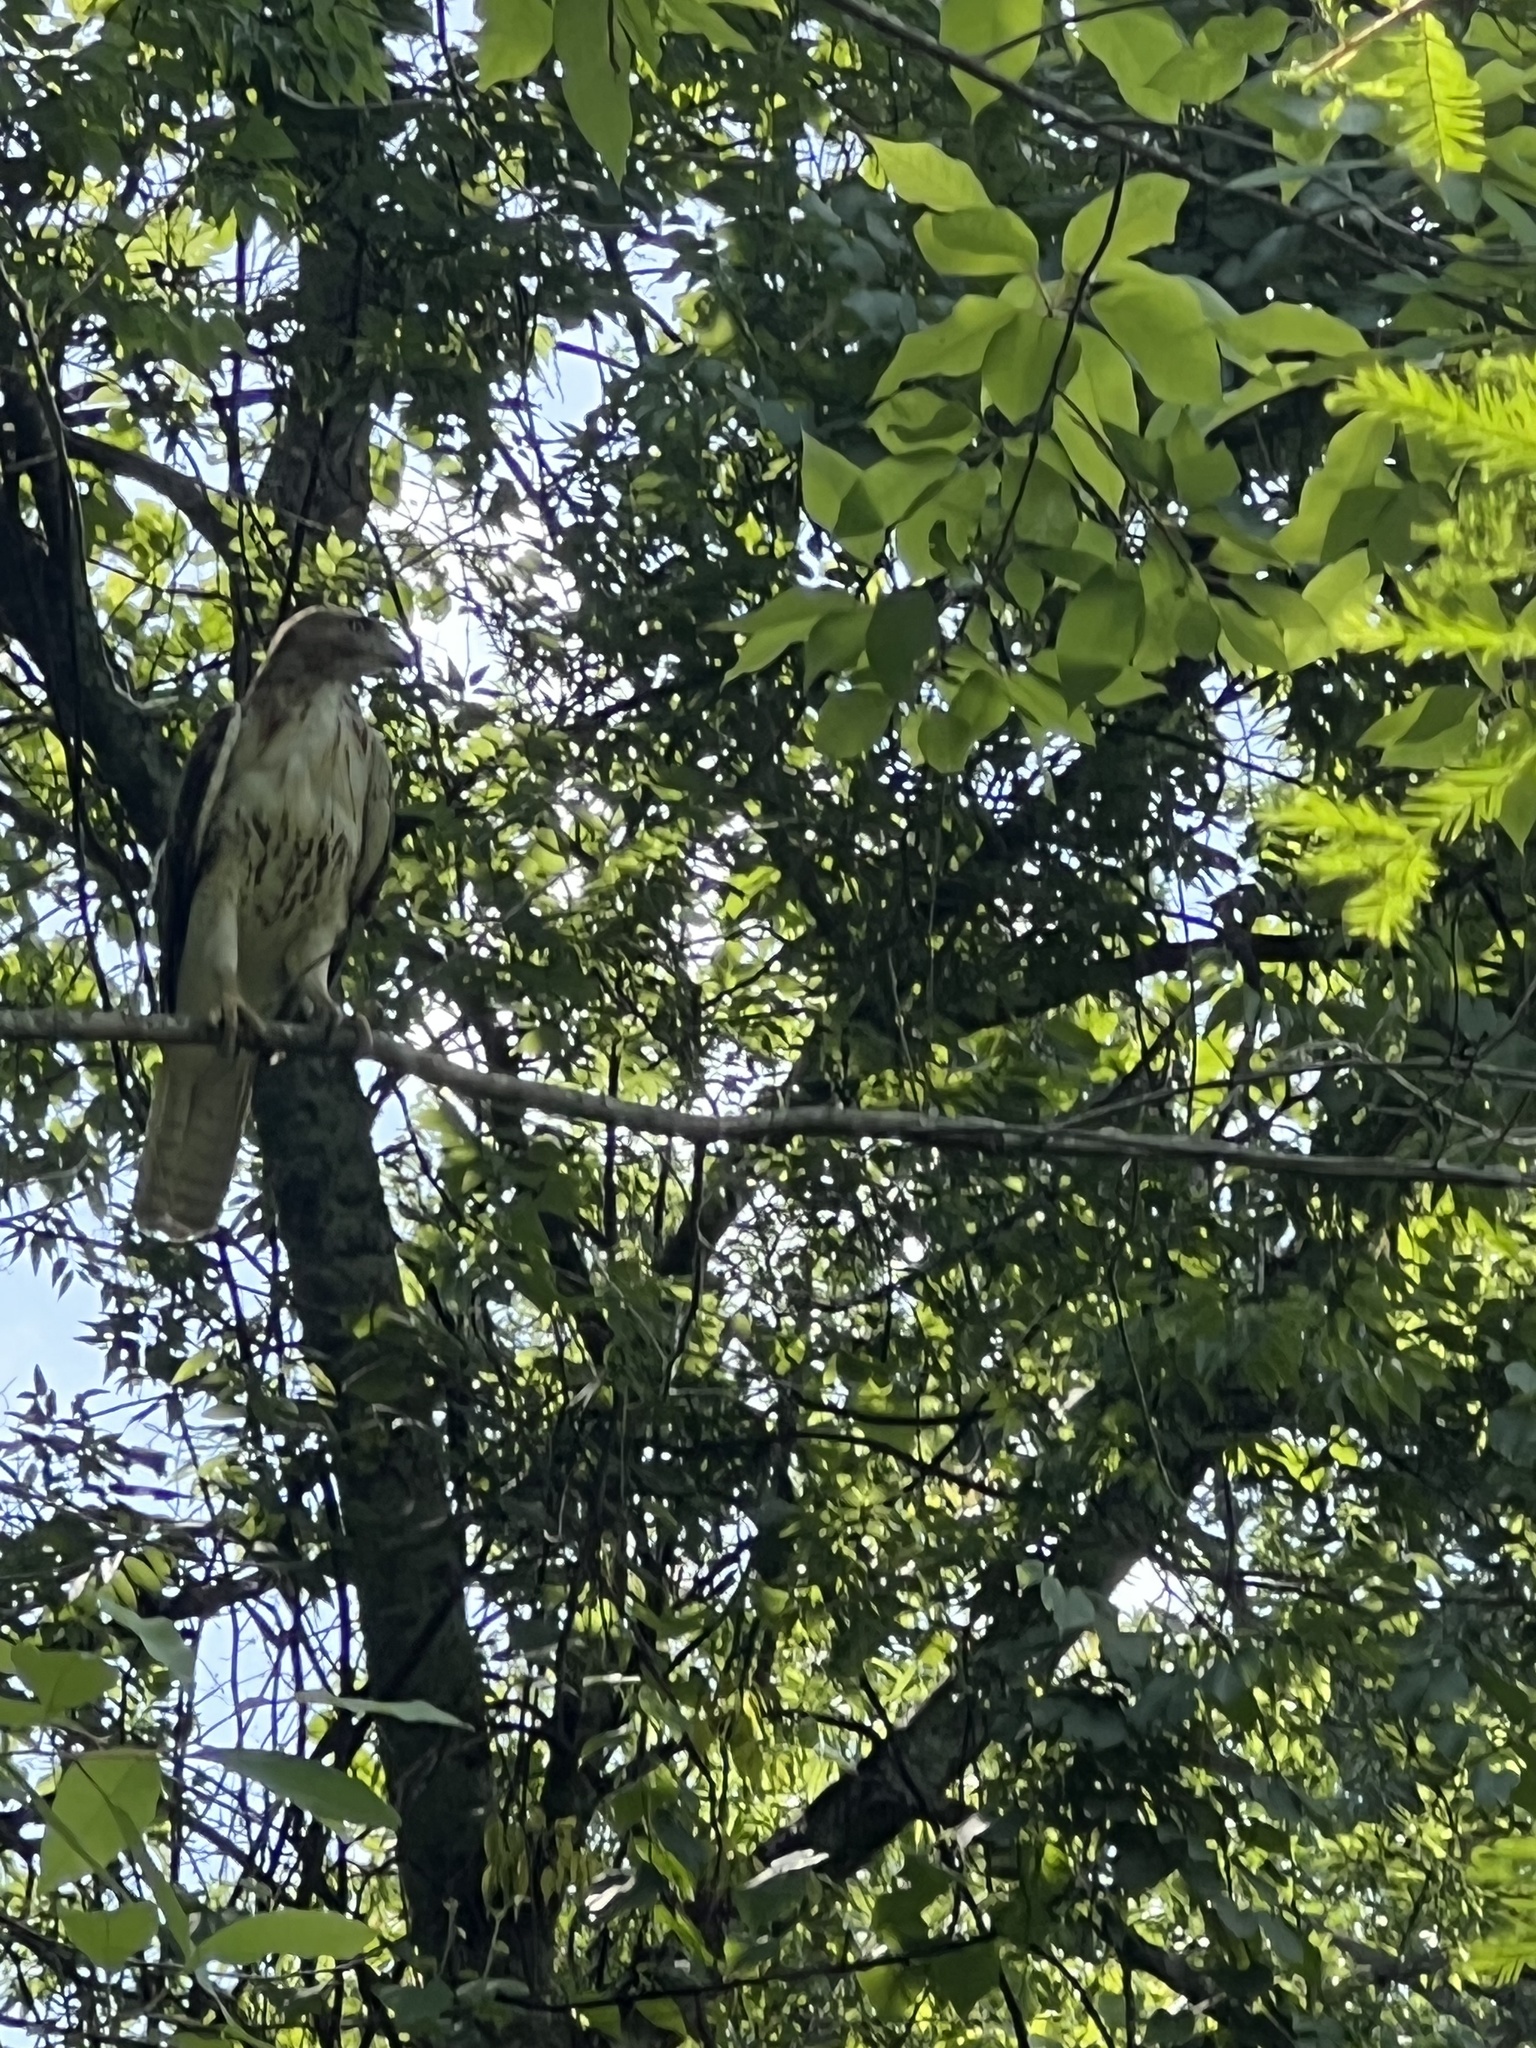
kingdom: Animalia
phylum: Chordata
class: Aves
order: Accipitriformes
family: Accipitridae
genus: Buteo
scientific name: Buteo jamaicensis
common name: Red-tailed hawk
